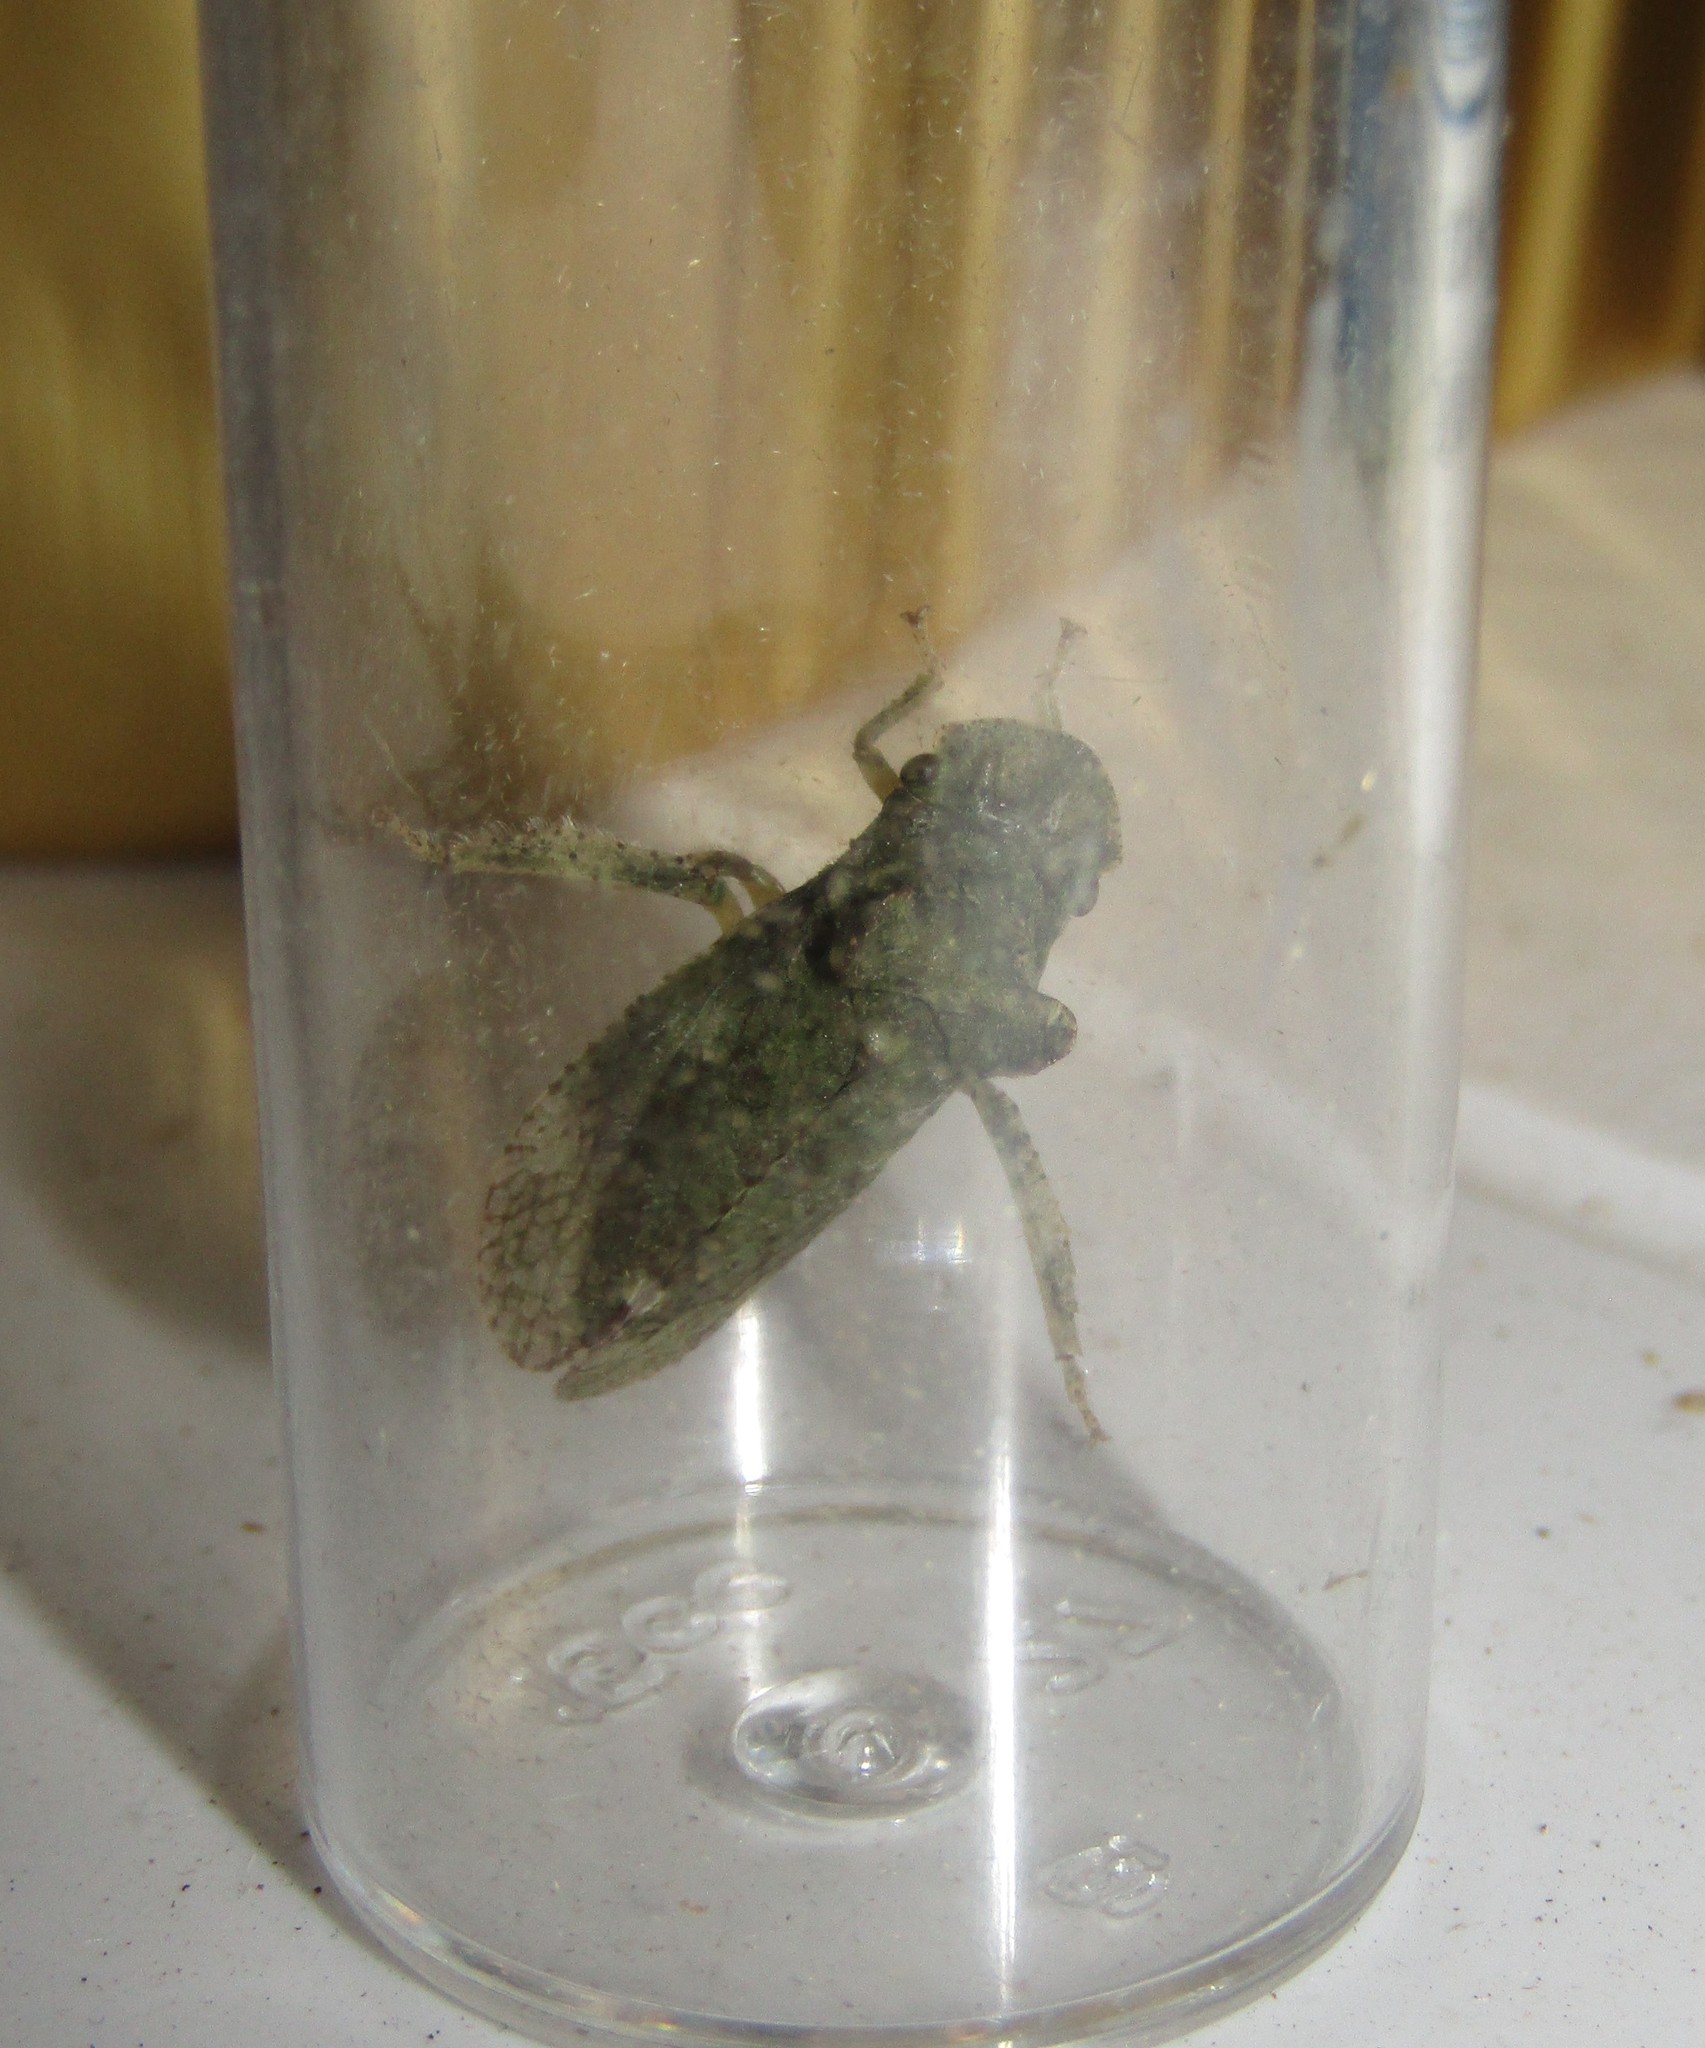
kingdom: Animalia
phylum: Arthropoda
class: Insecta
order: Hemiptera
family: Cicadellidae
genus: Ledra
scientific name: Ledra aurita
